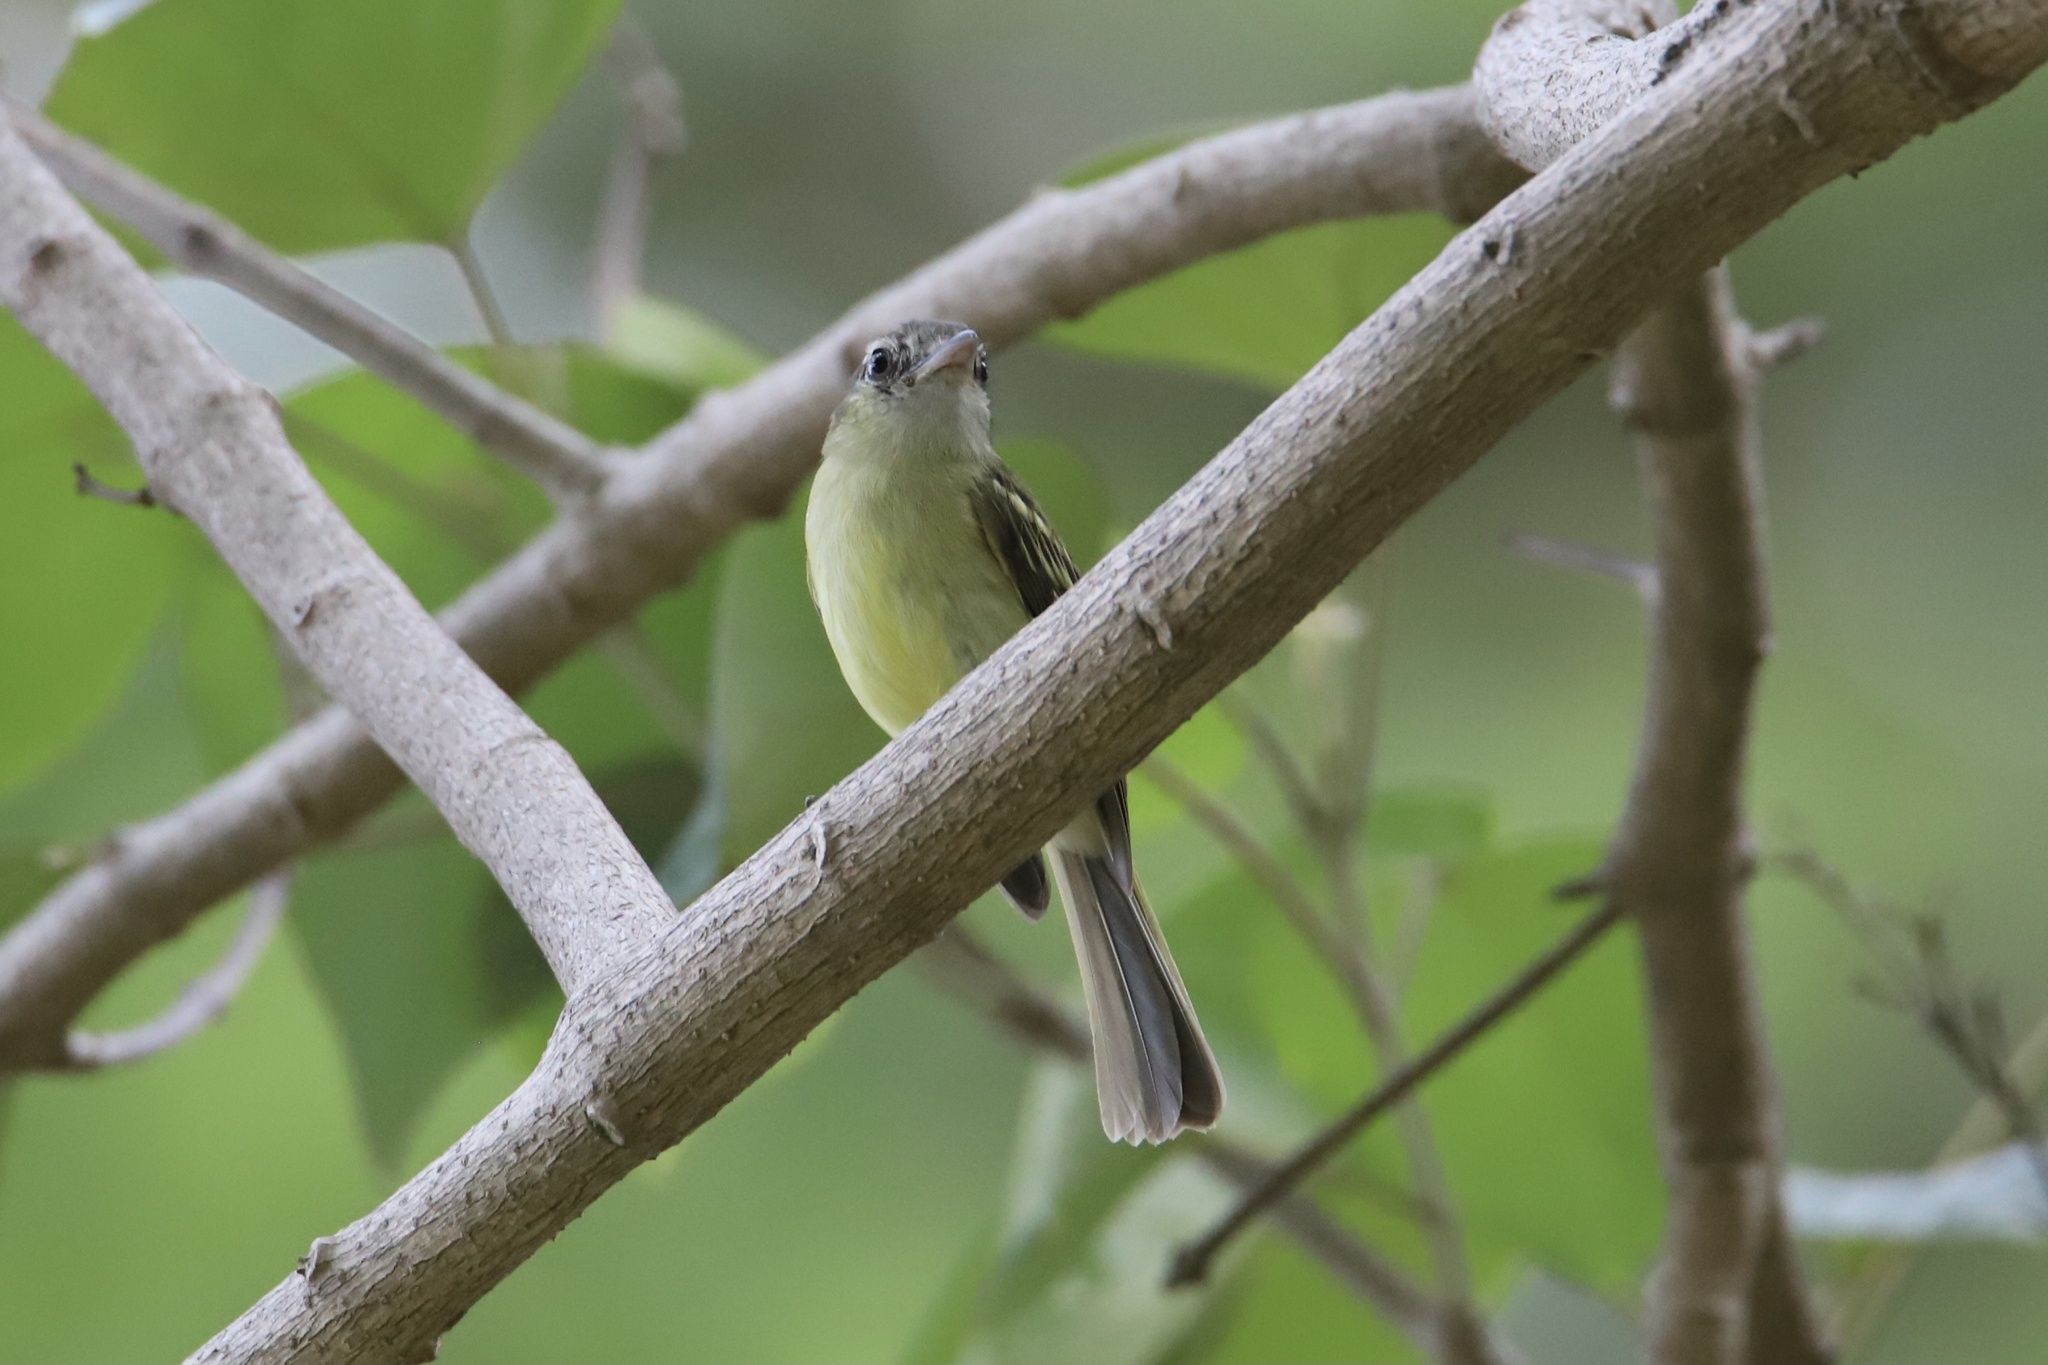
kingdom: Animalia
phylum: Chordata
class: Aves
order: Passeriformes
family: Tyrannidae
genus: Tolmomyias
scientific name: Tolmomyias sulphurescens
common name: Yellow-olive flycatcher
